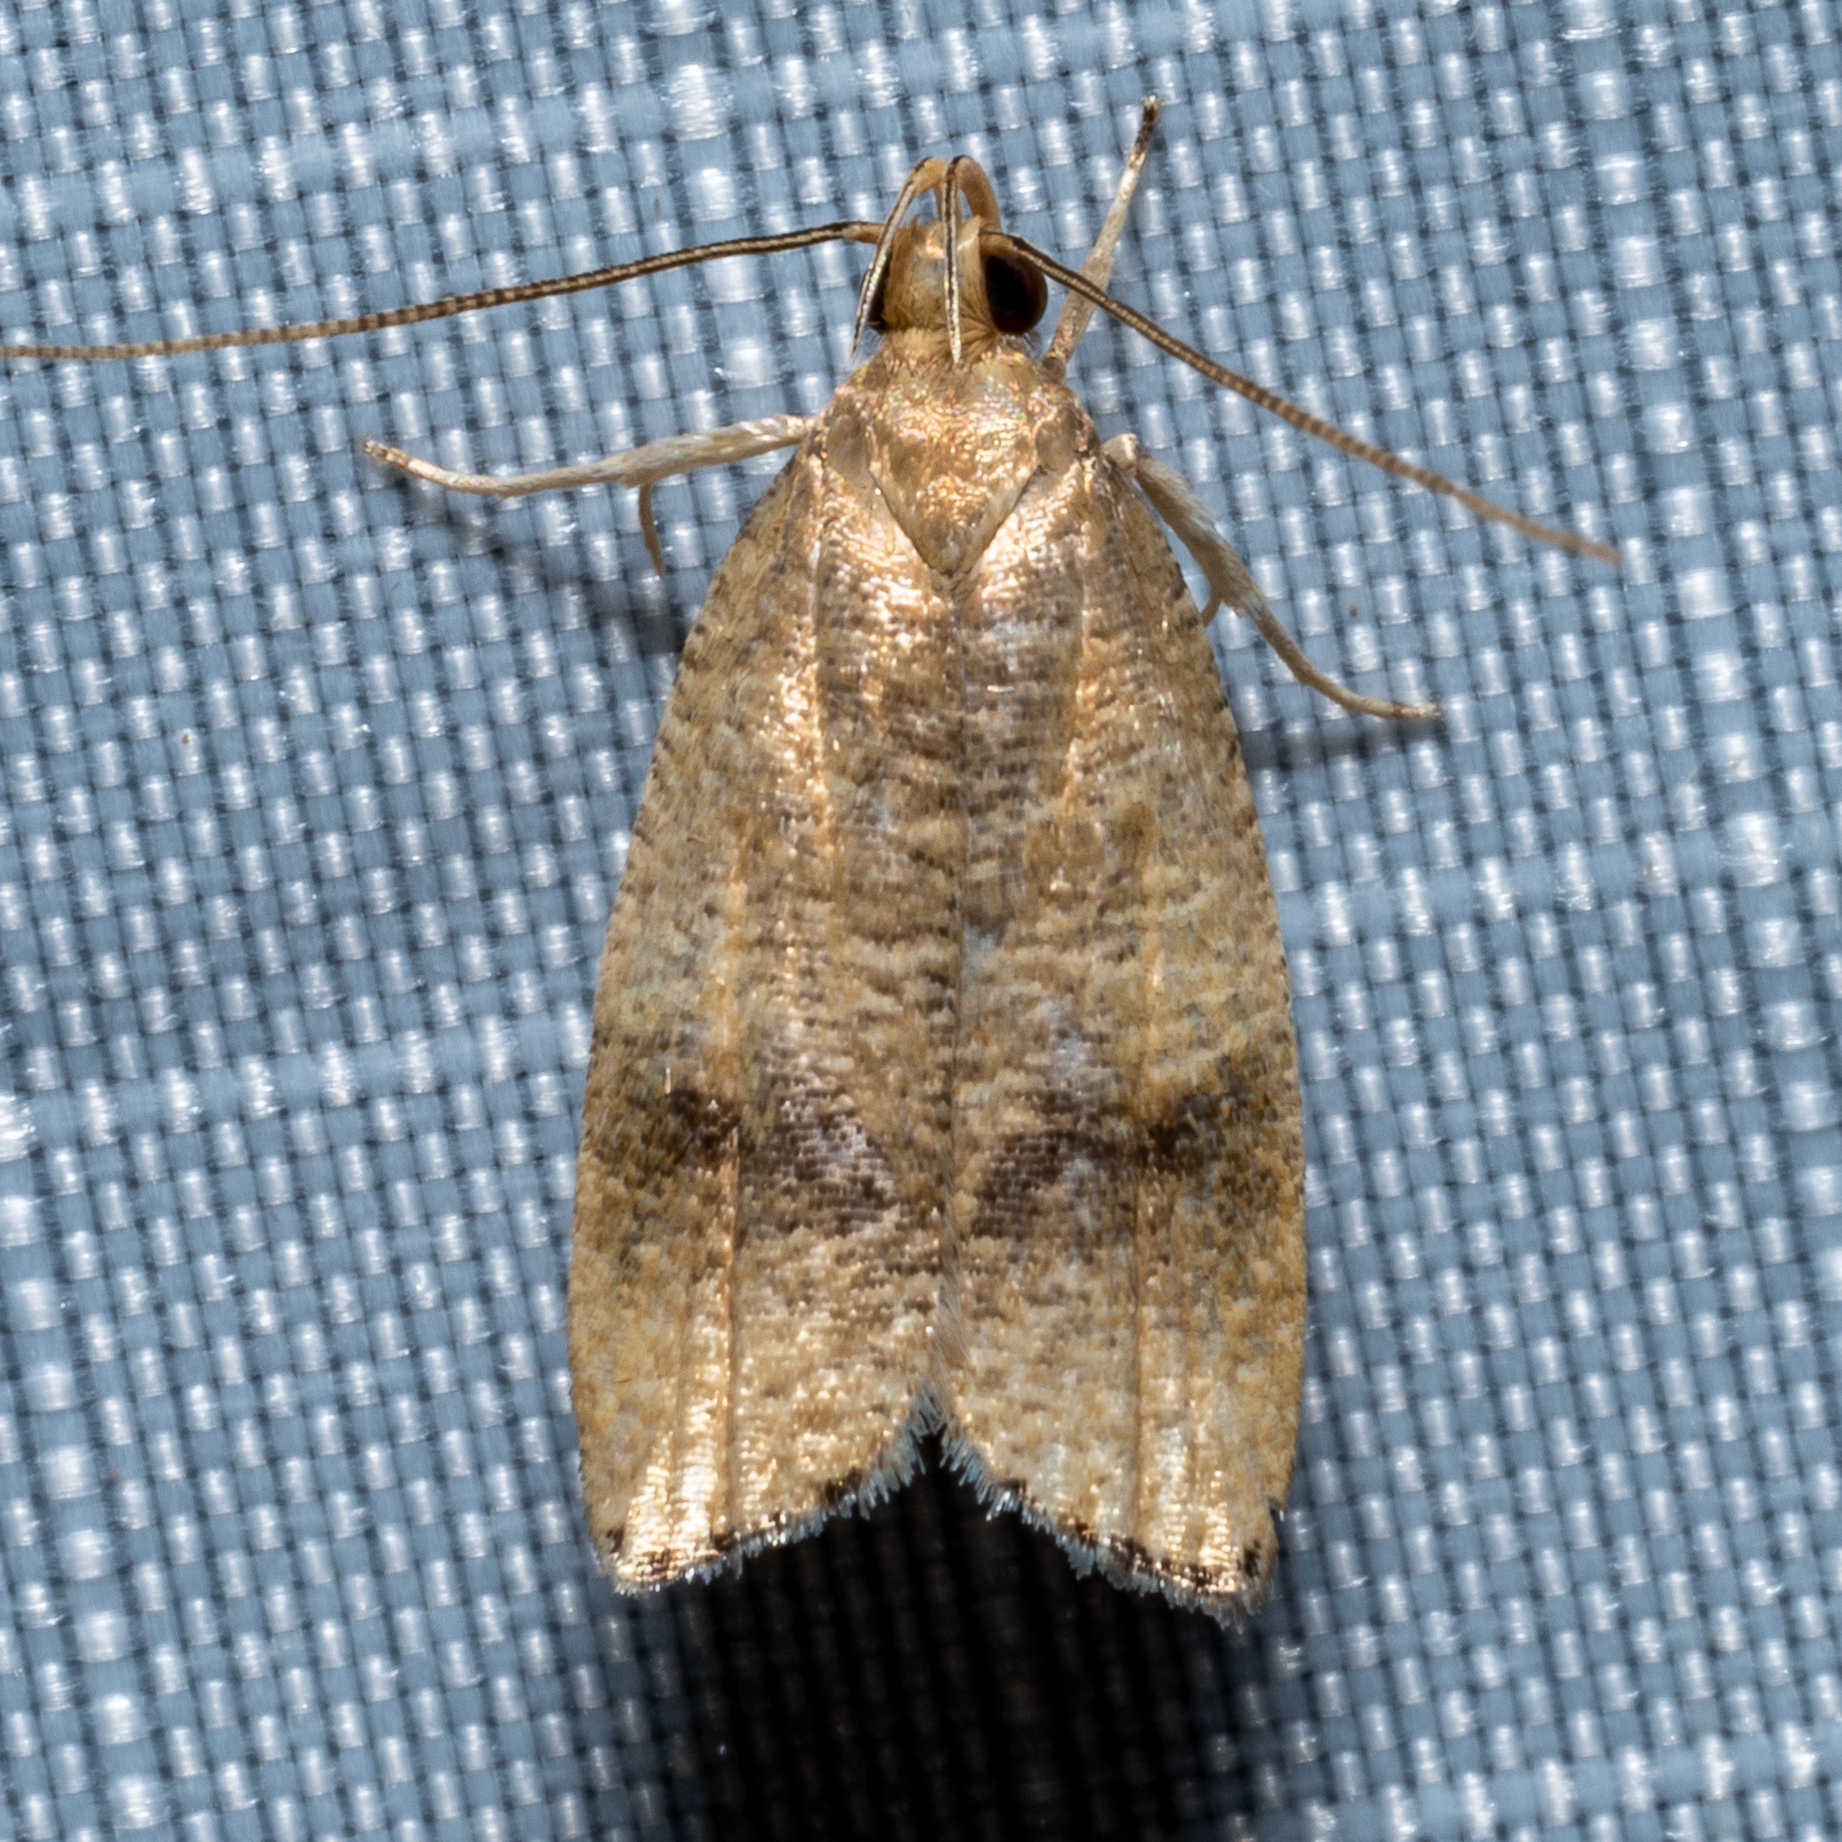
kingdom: Animalia
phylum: Arthropoda
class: Insecta
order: Lepidoptera
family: Depressariidae
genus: Psilocorsis
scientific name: Psilocorsis cryptolechiella
